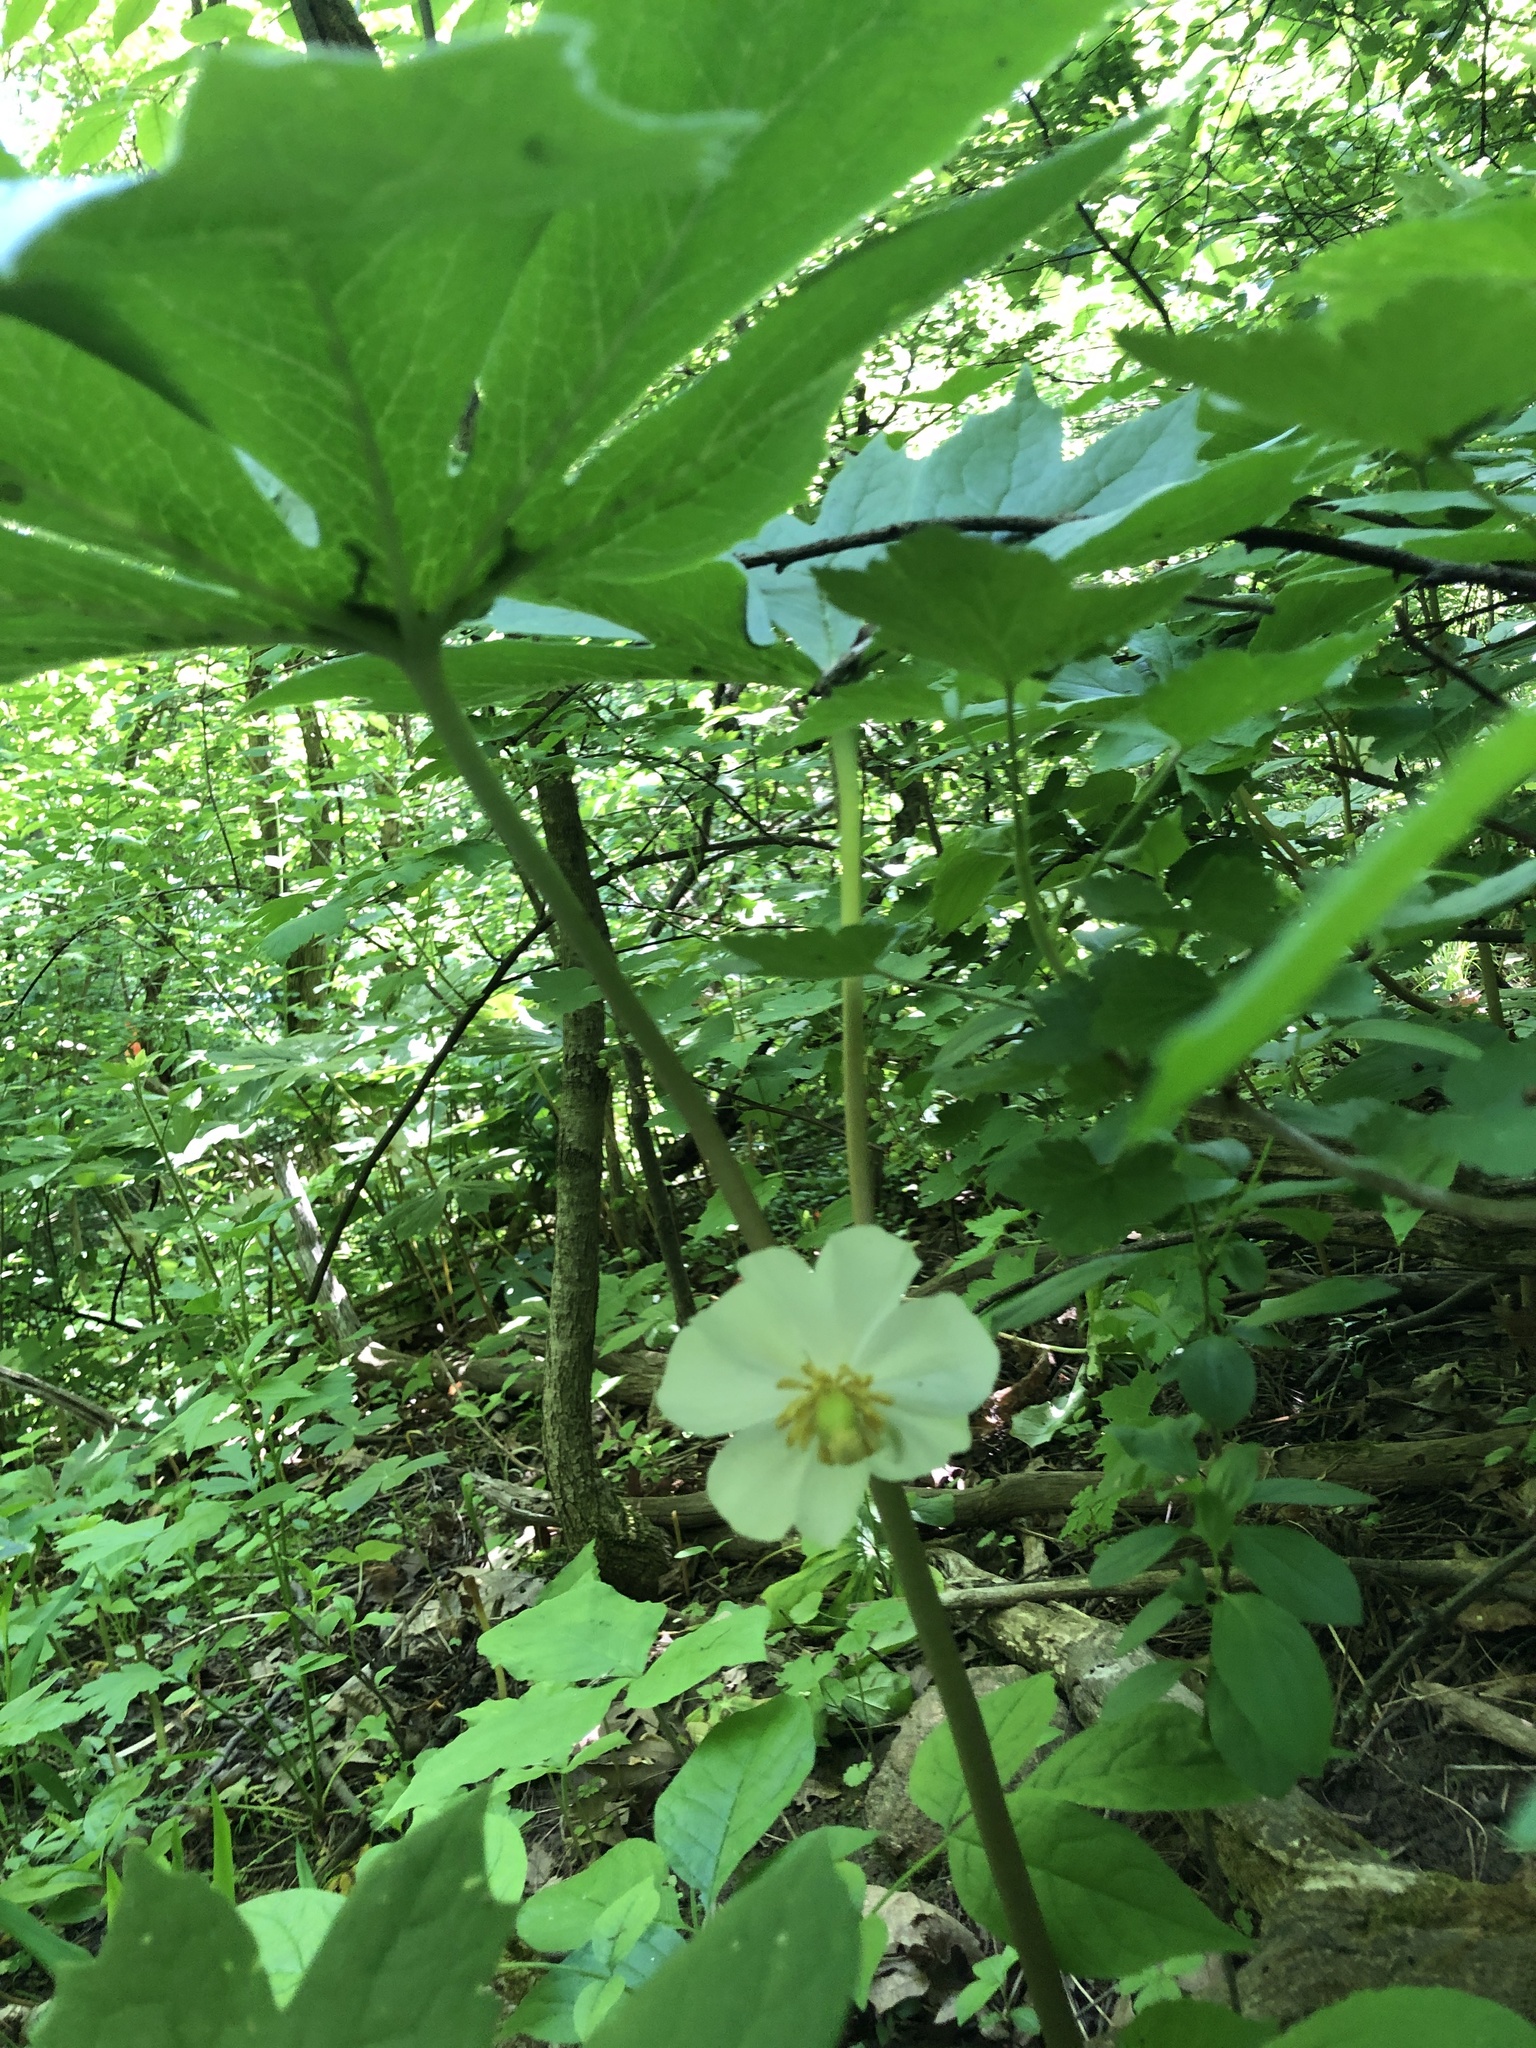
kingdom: Plantae
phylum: Tracheophyta
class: Magnoliopsida
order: Ranunculales
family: Berberidaceae
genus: Podophyllum
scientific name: Podophyllum peltatum
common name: Wild mandrake
